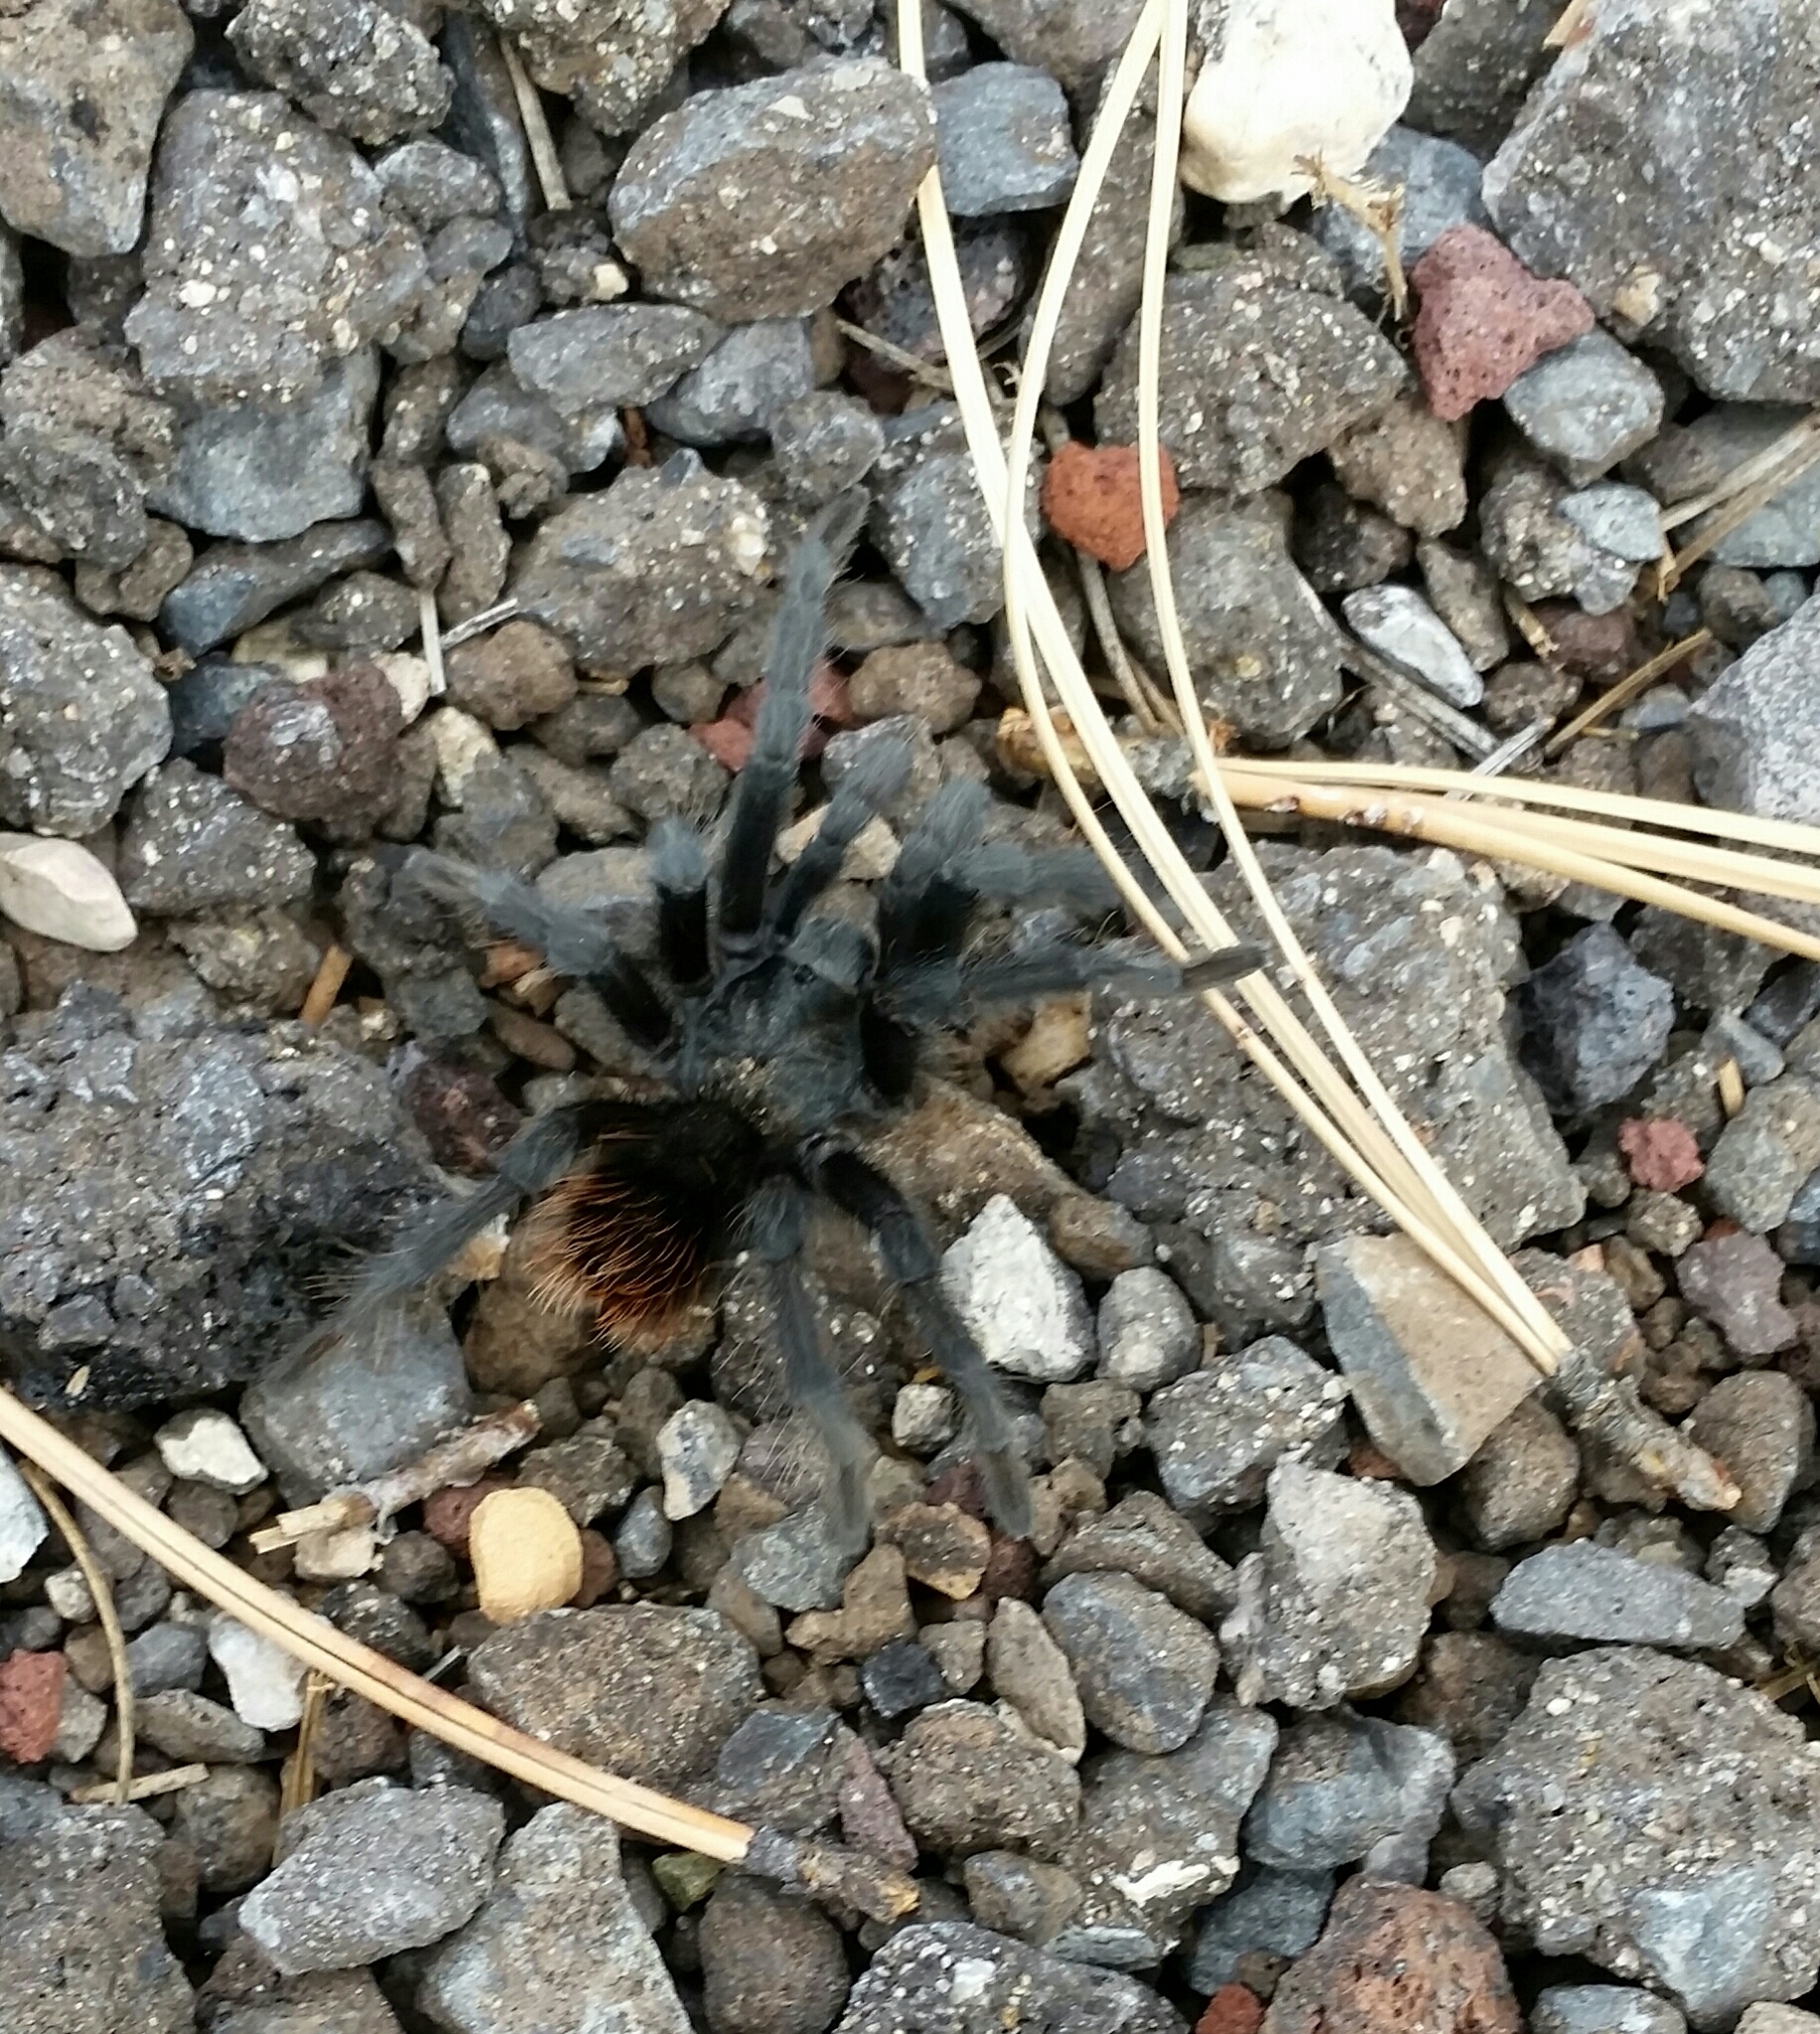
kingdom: Animalia
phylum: Arthropoda
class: Arachnida
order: Araneae
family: Theraphosidae
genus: Aphonopelma
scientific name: Aphonopelma marxi
